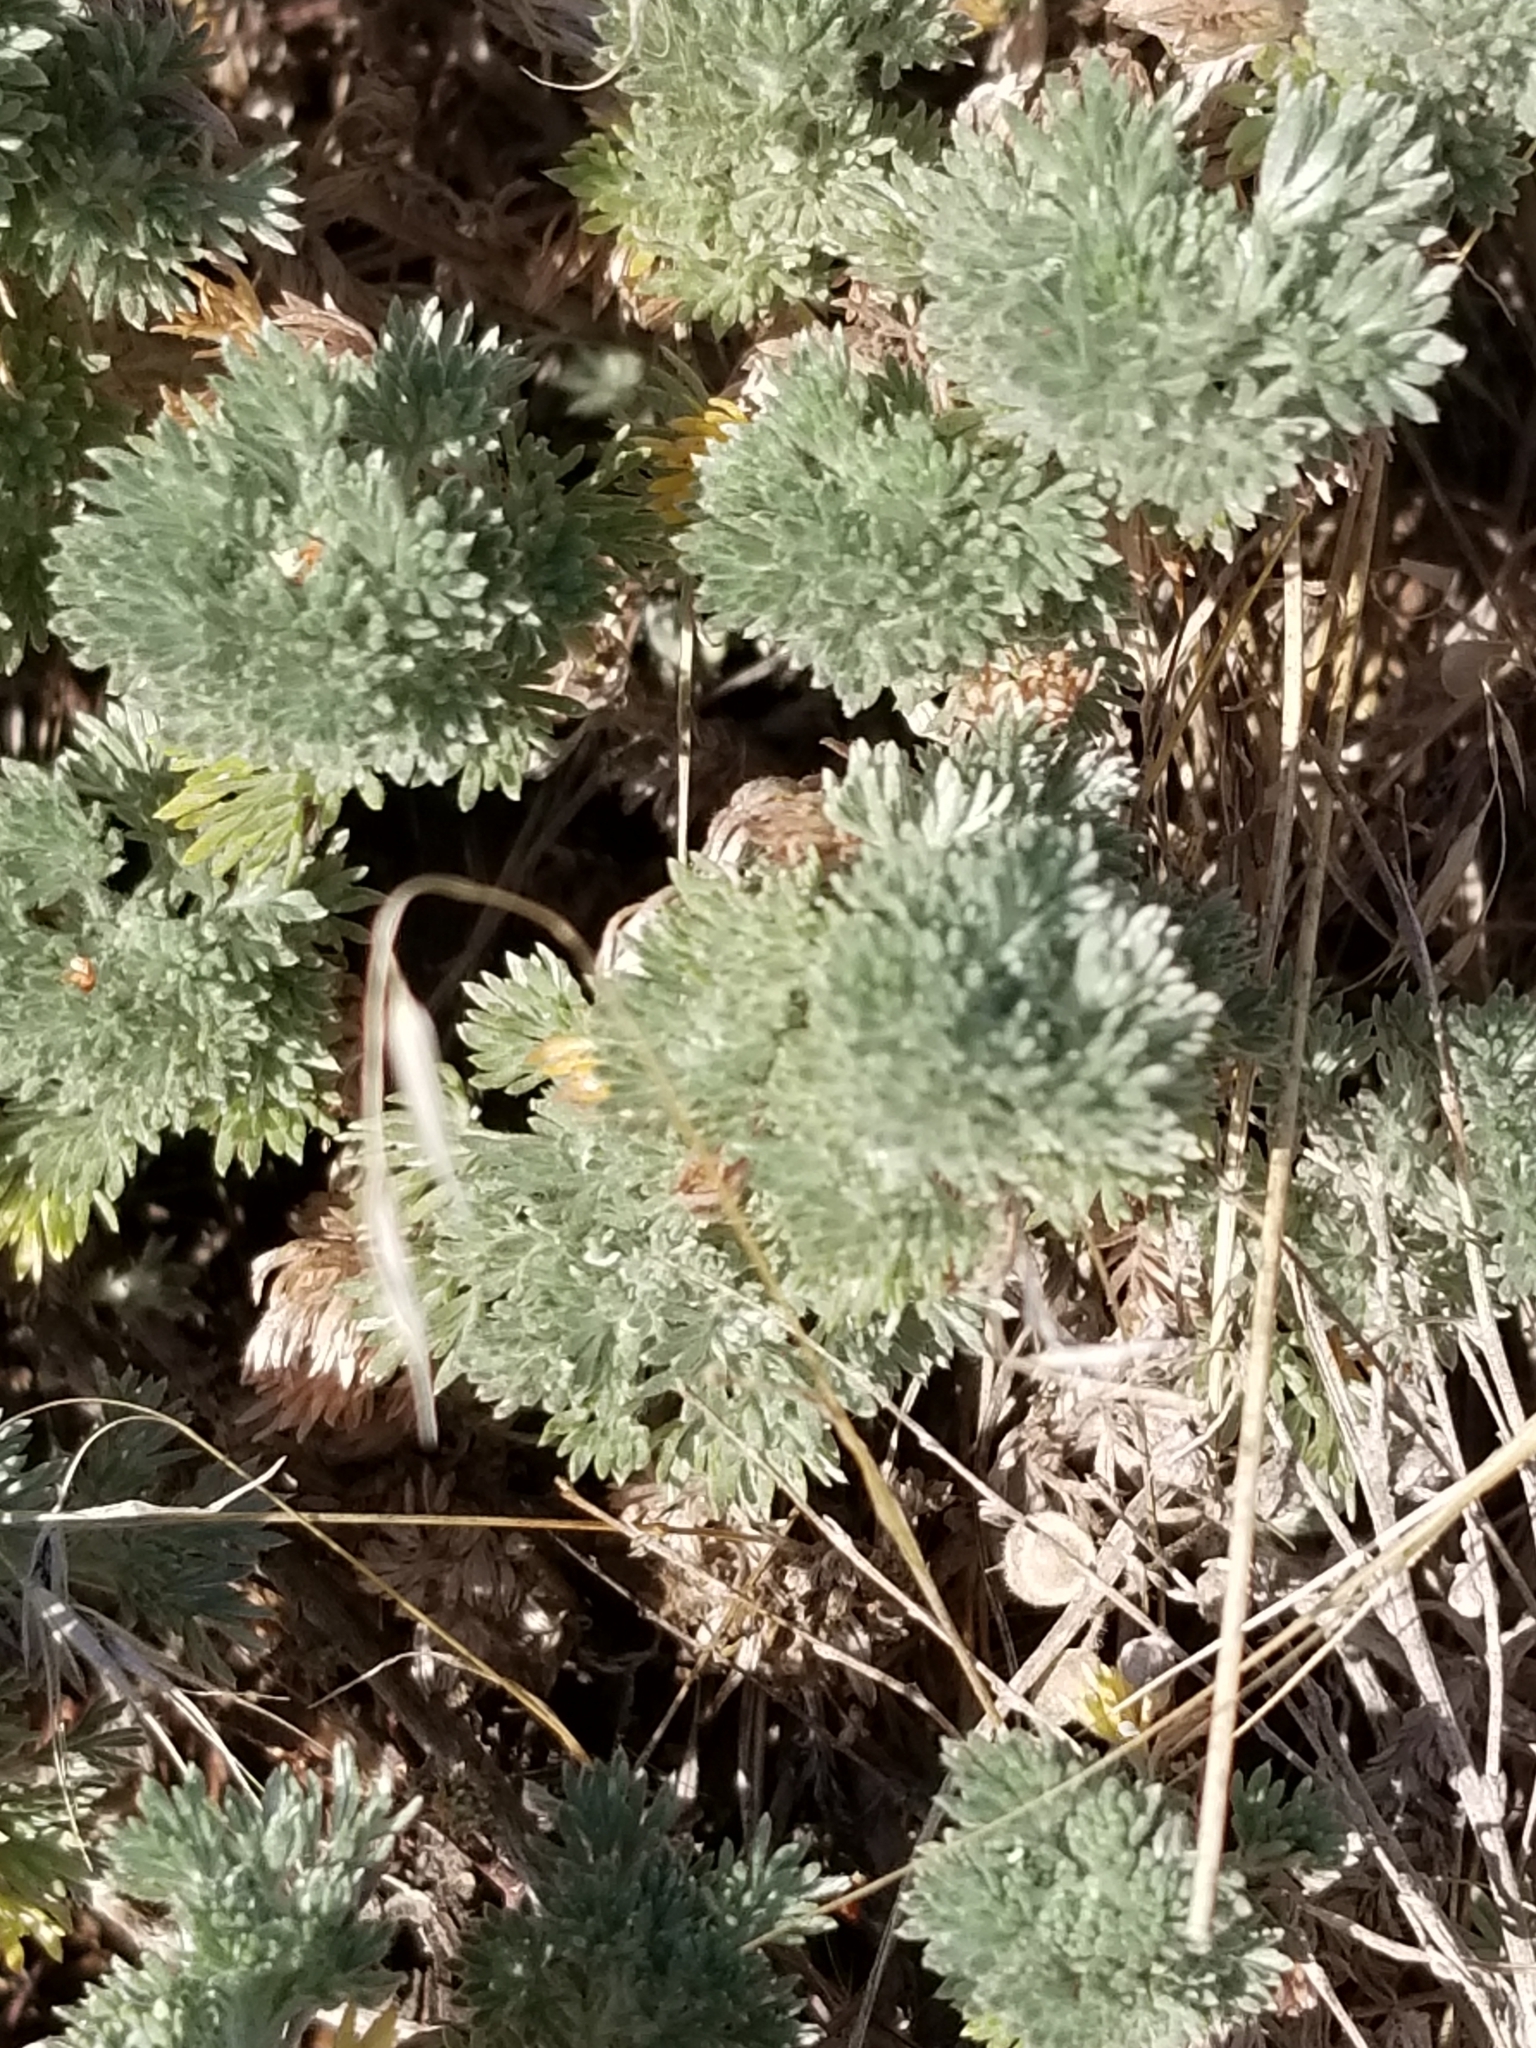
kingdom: Plantae
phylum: Tracheophyta
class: Magnoliopsida
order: Asterales
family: Asteraceae
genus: Artemisia
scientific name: Artemisia frigida
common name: Prairie sagewort
